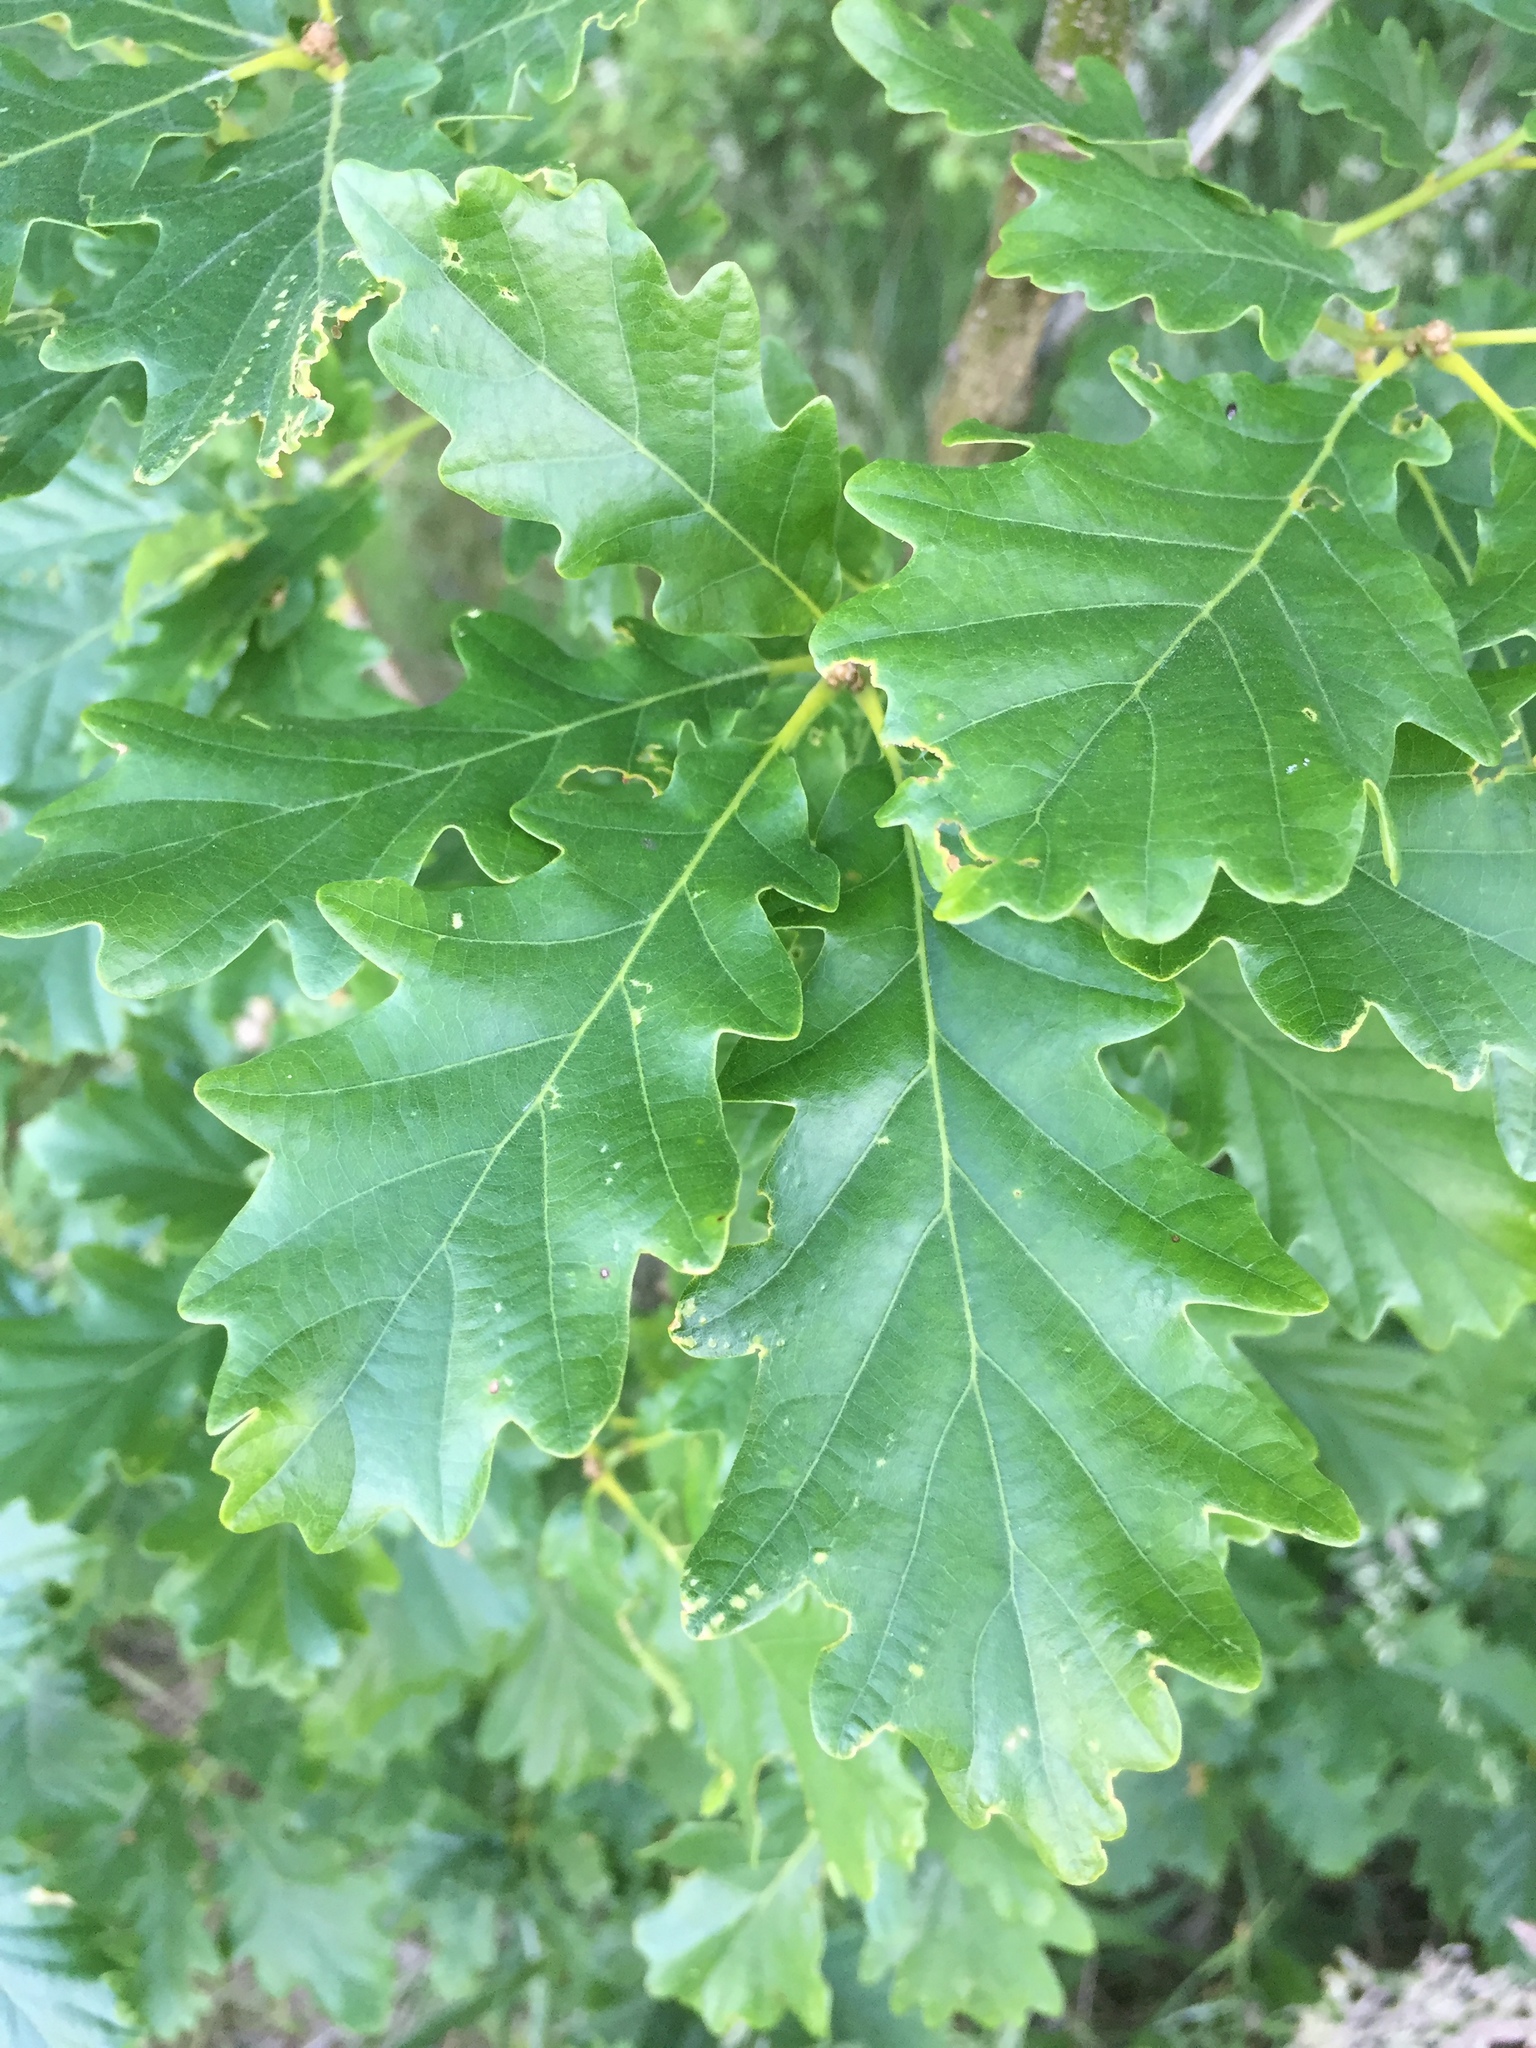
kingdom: Plantae
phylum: Tracheophyta
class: Magnoliopsida
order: Fagales
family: Fagaceae
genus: Quercus
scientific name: Quercus petraea
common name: Sessile oak
